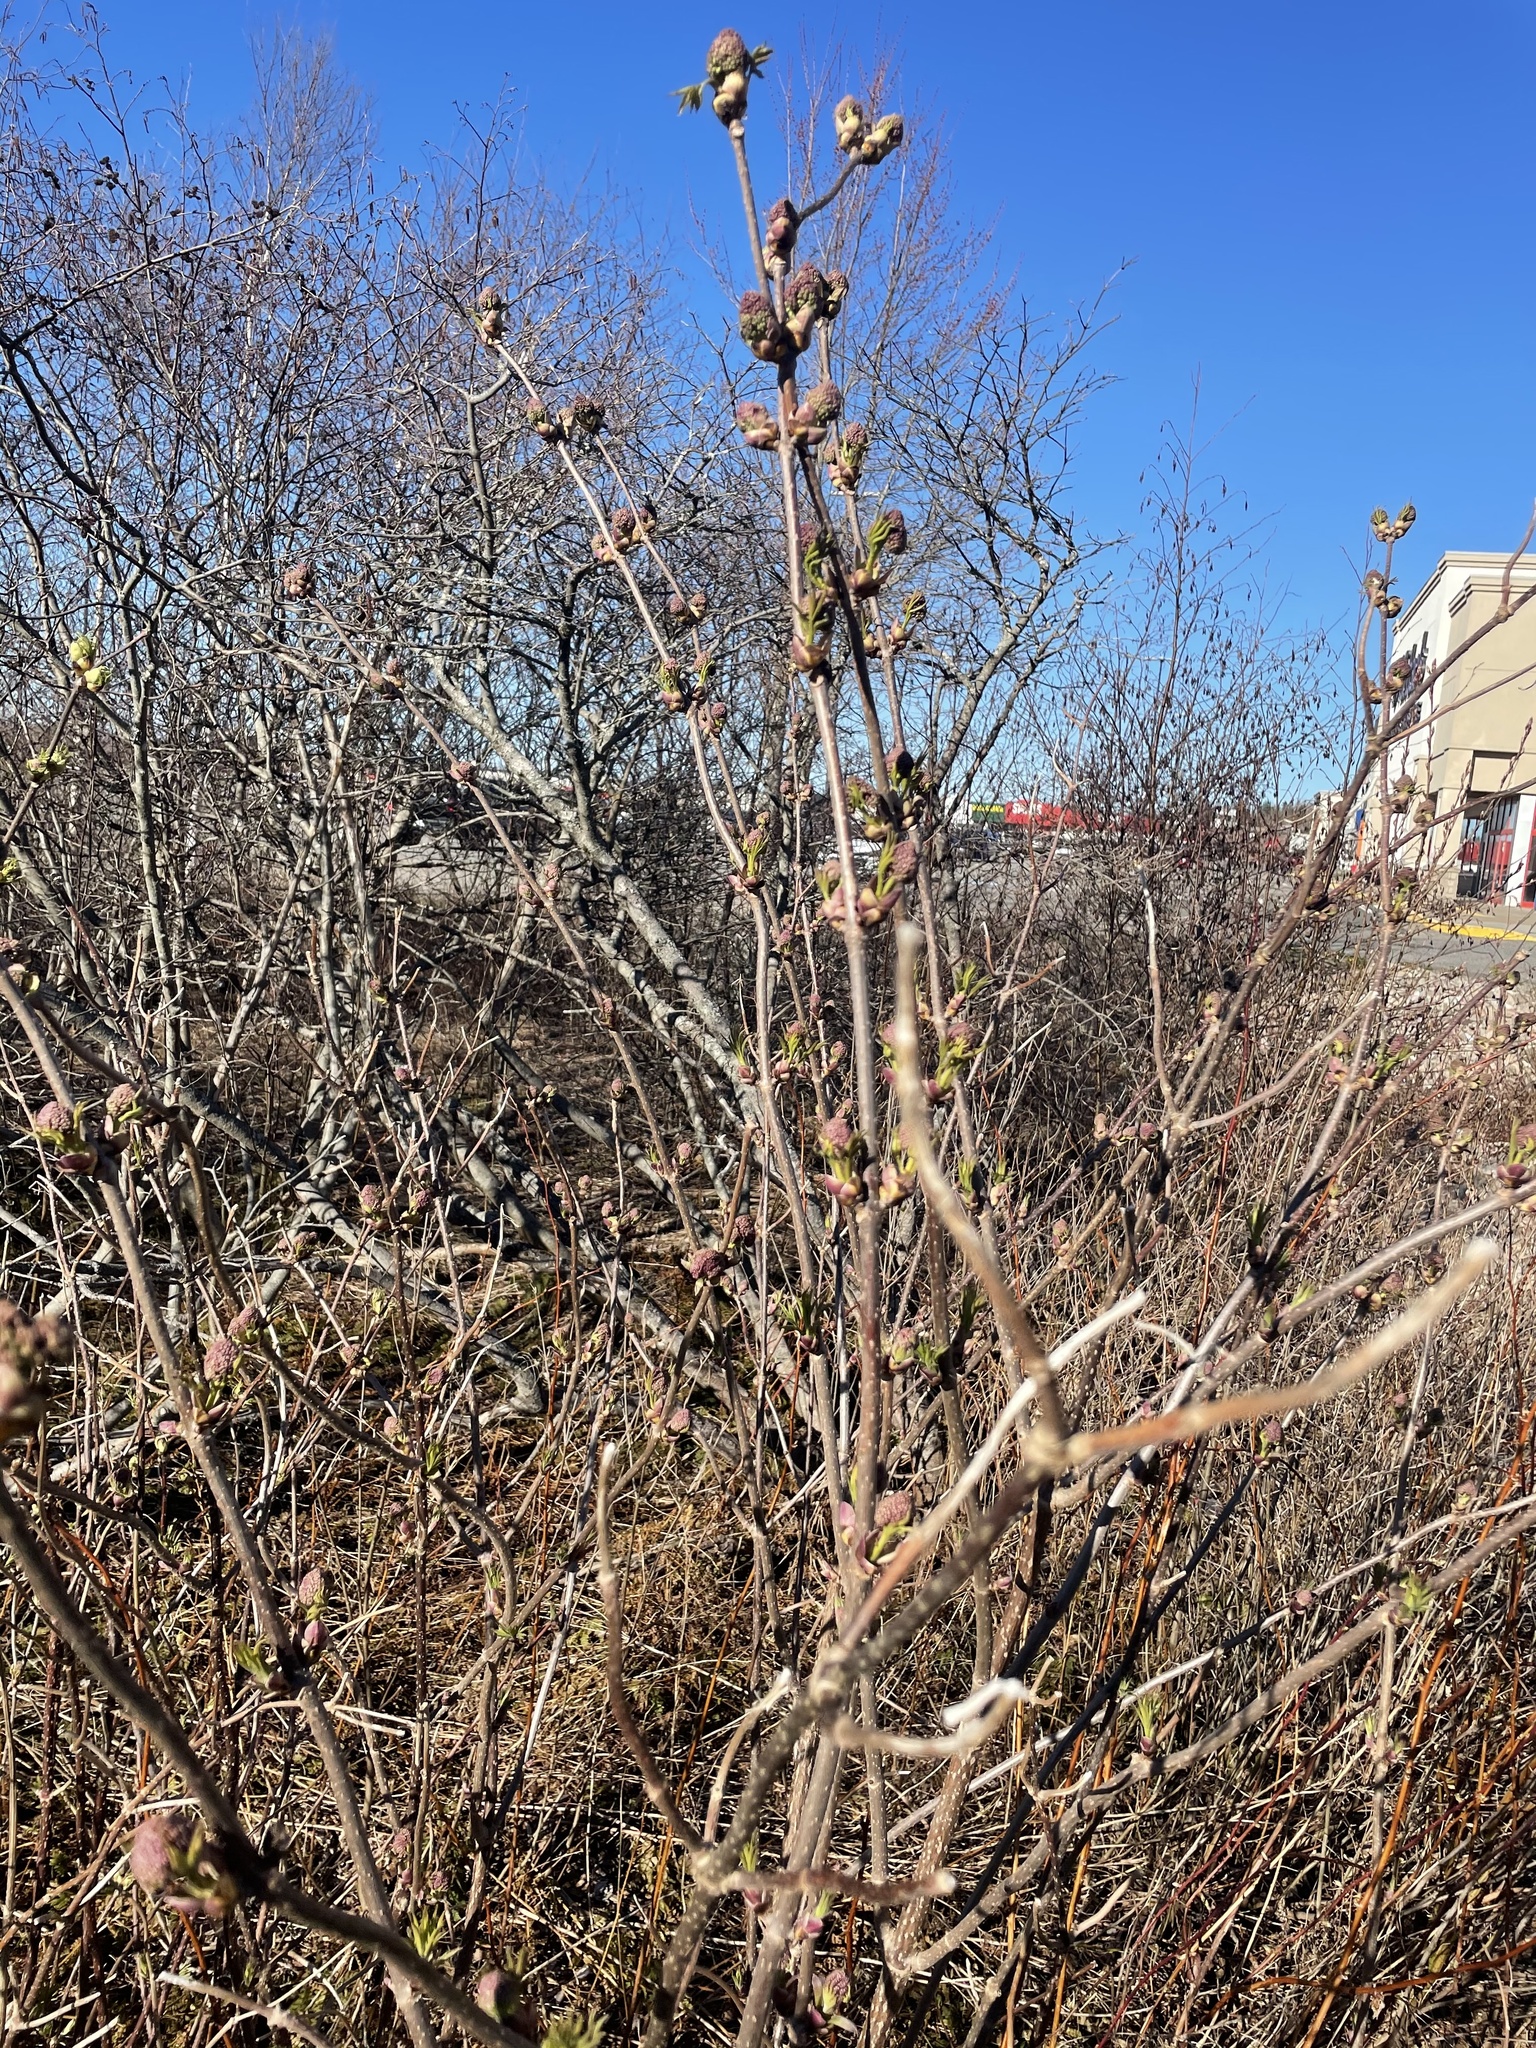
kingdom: Plantae
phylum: Tracheophyta
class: Magnoliopsida
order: Dipsacales
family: Viburnaceae
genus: Sambucus
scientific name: Sambucus racemosa
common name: Red-berried elder
